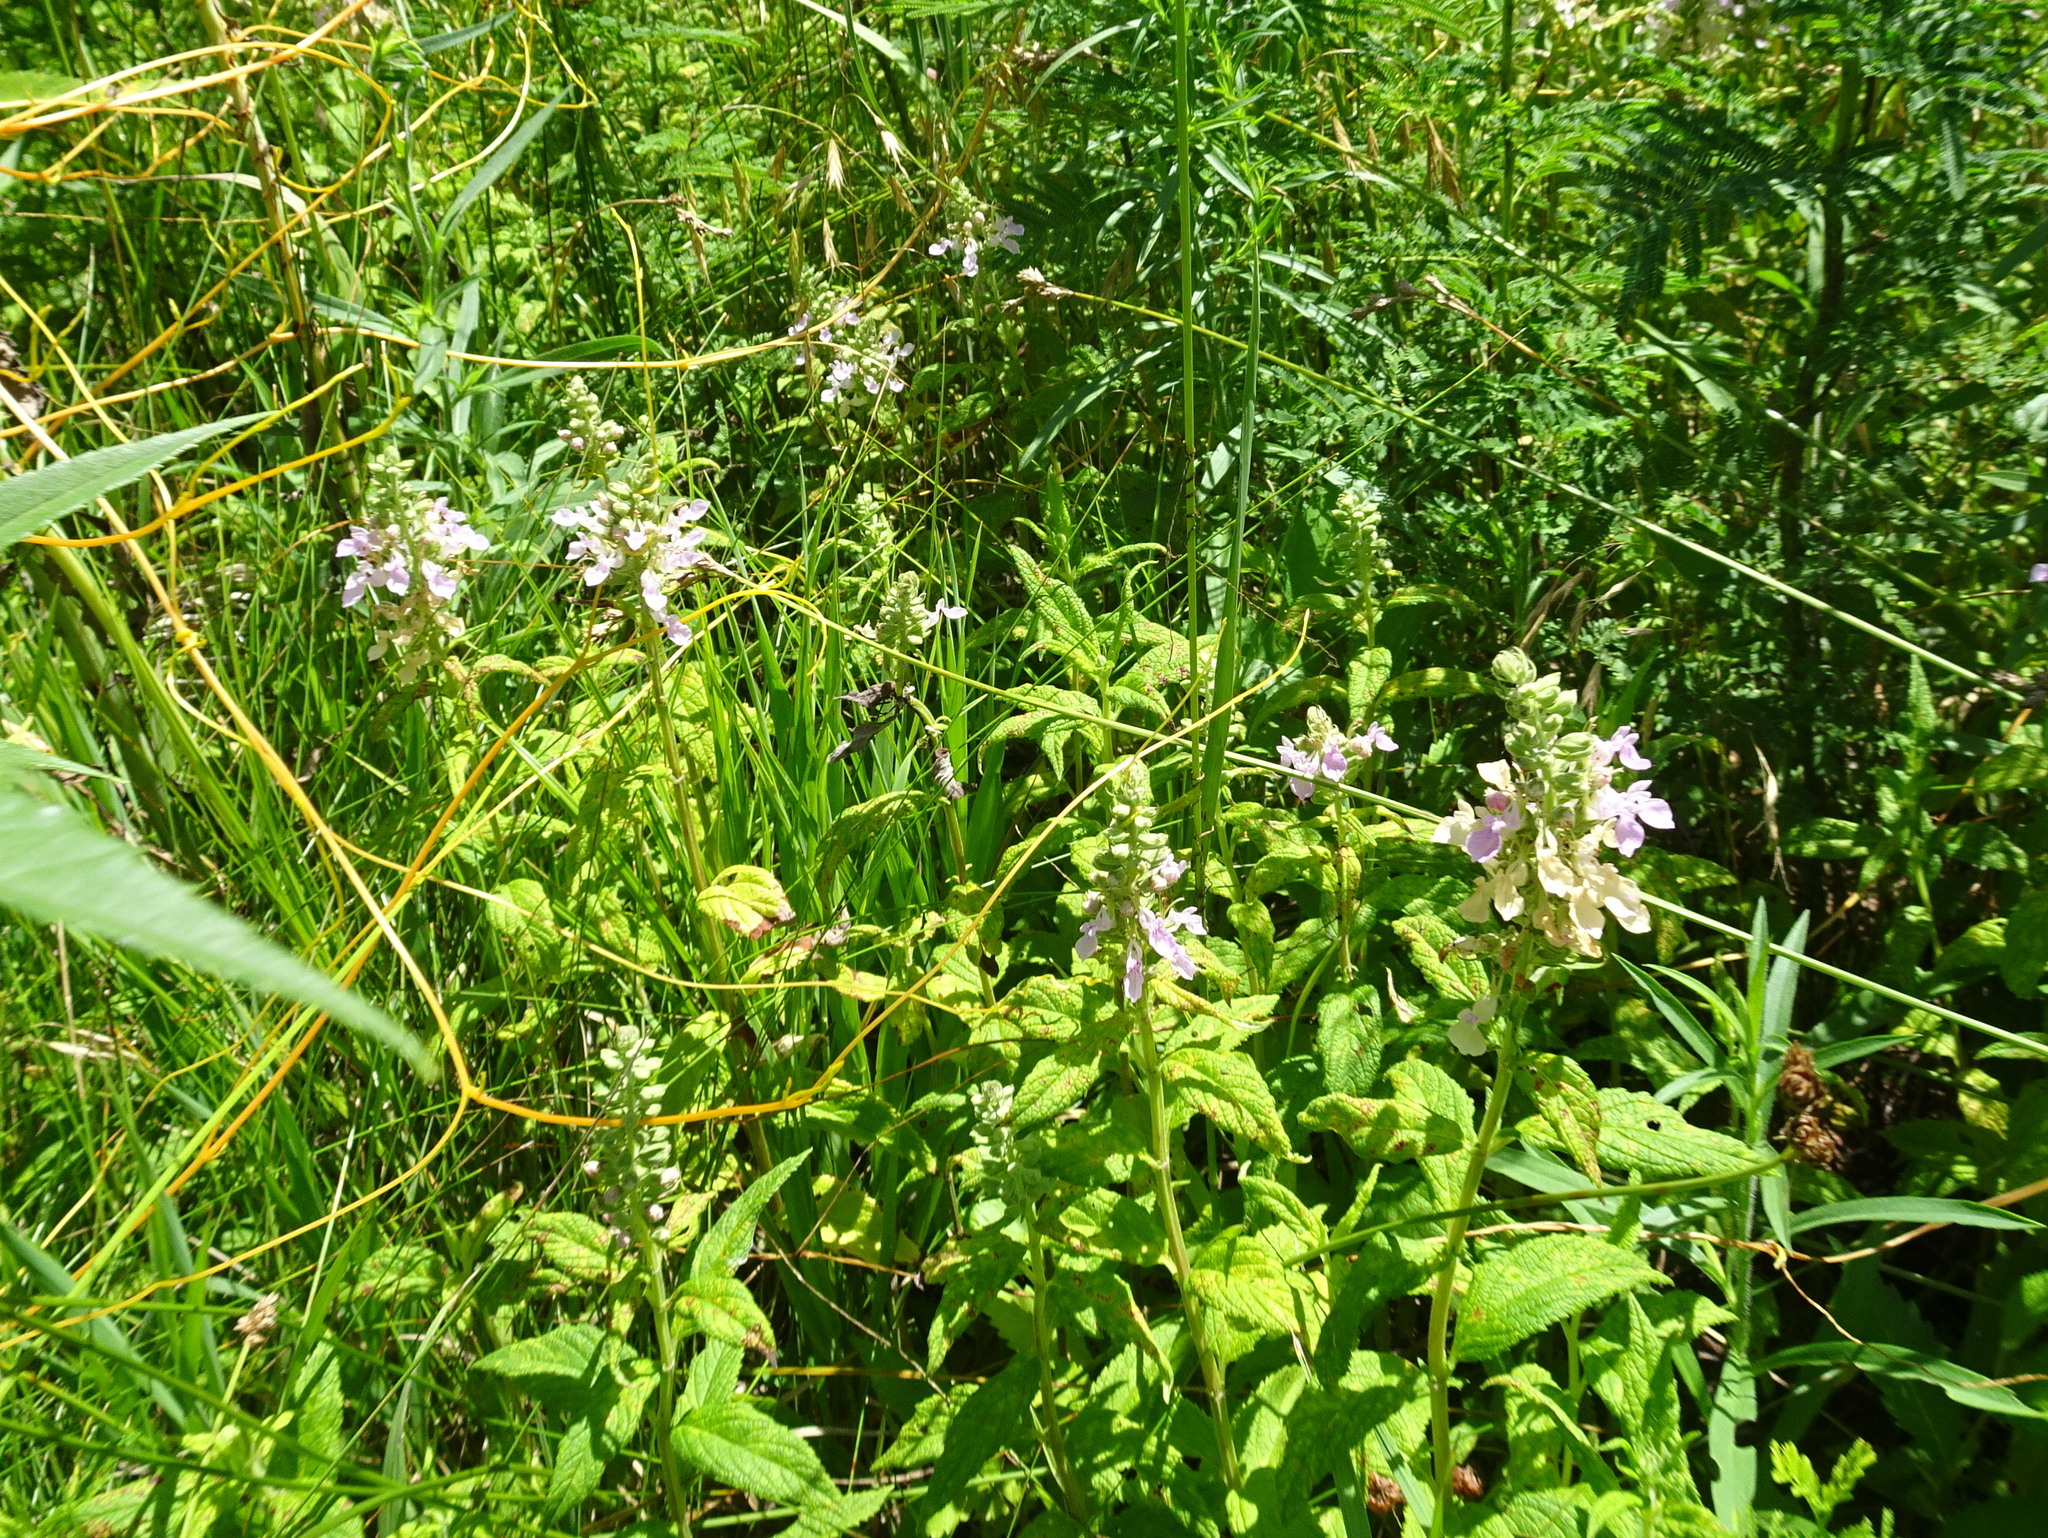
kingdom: Plantae
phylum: Tracheophyta
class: Magnoliopsida
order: Lamiales
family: Lamiaceae
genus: Teucrium
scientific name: Teucrium canadense
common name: American germander
